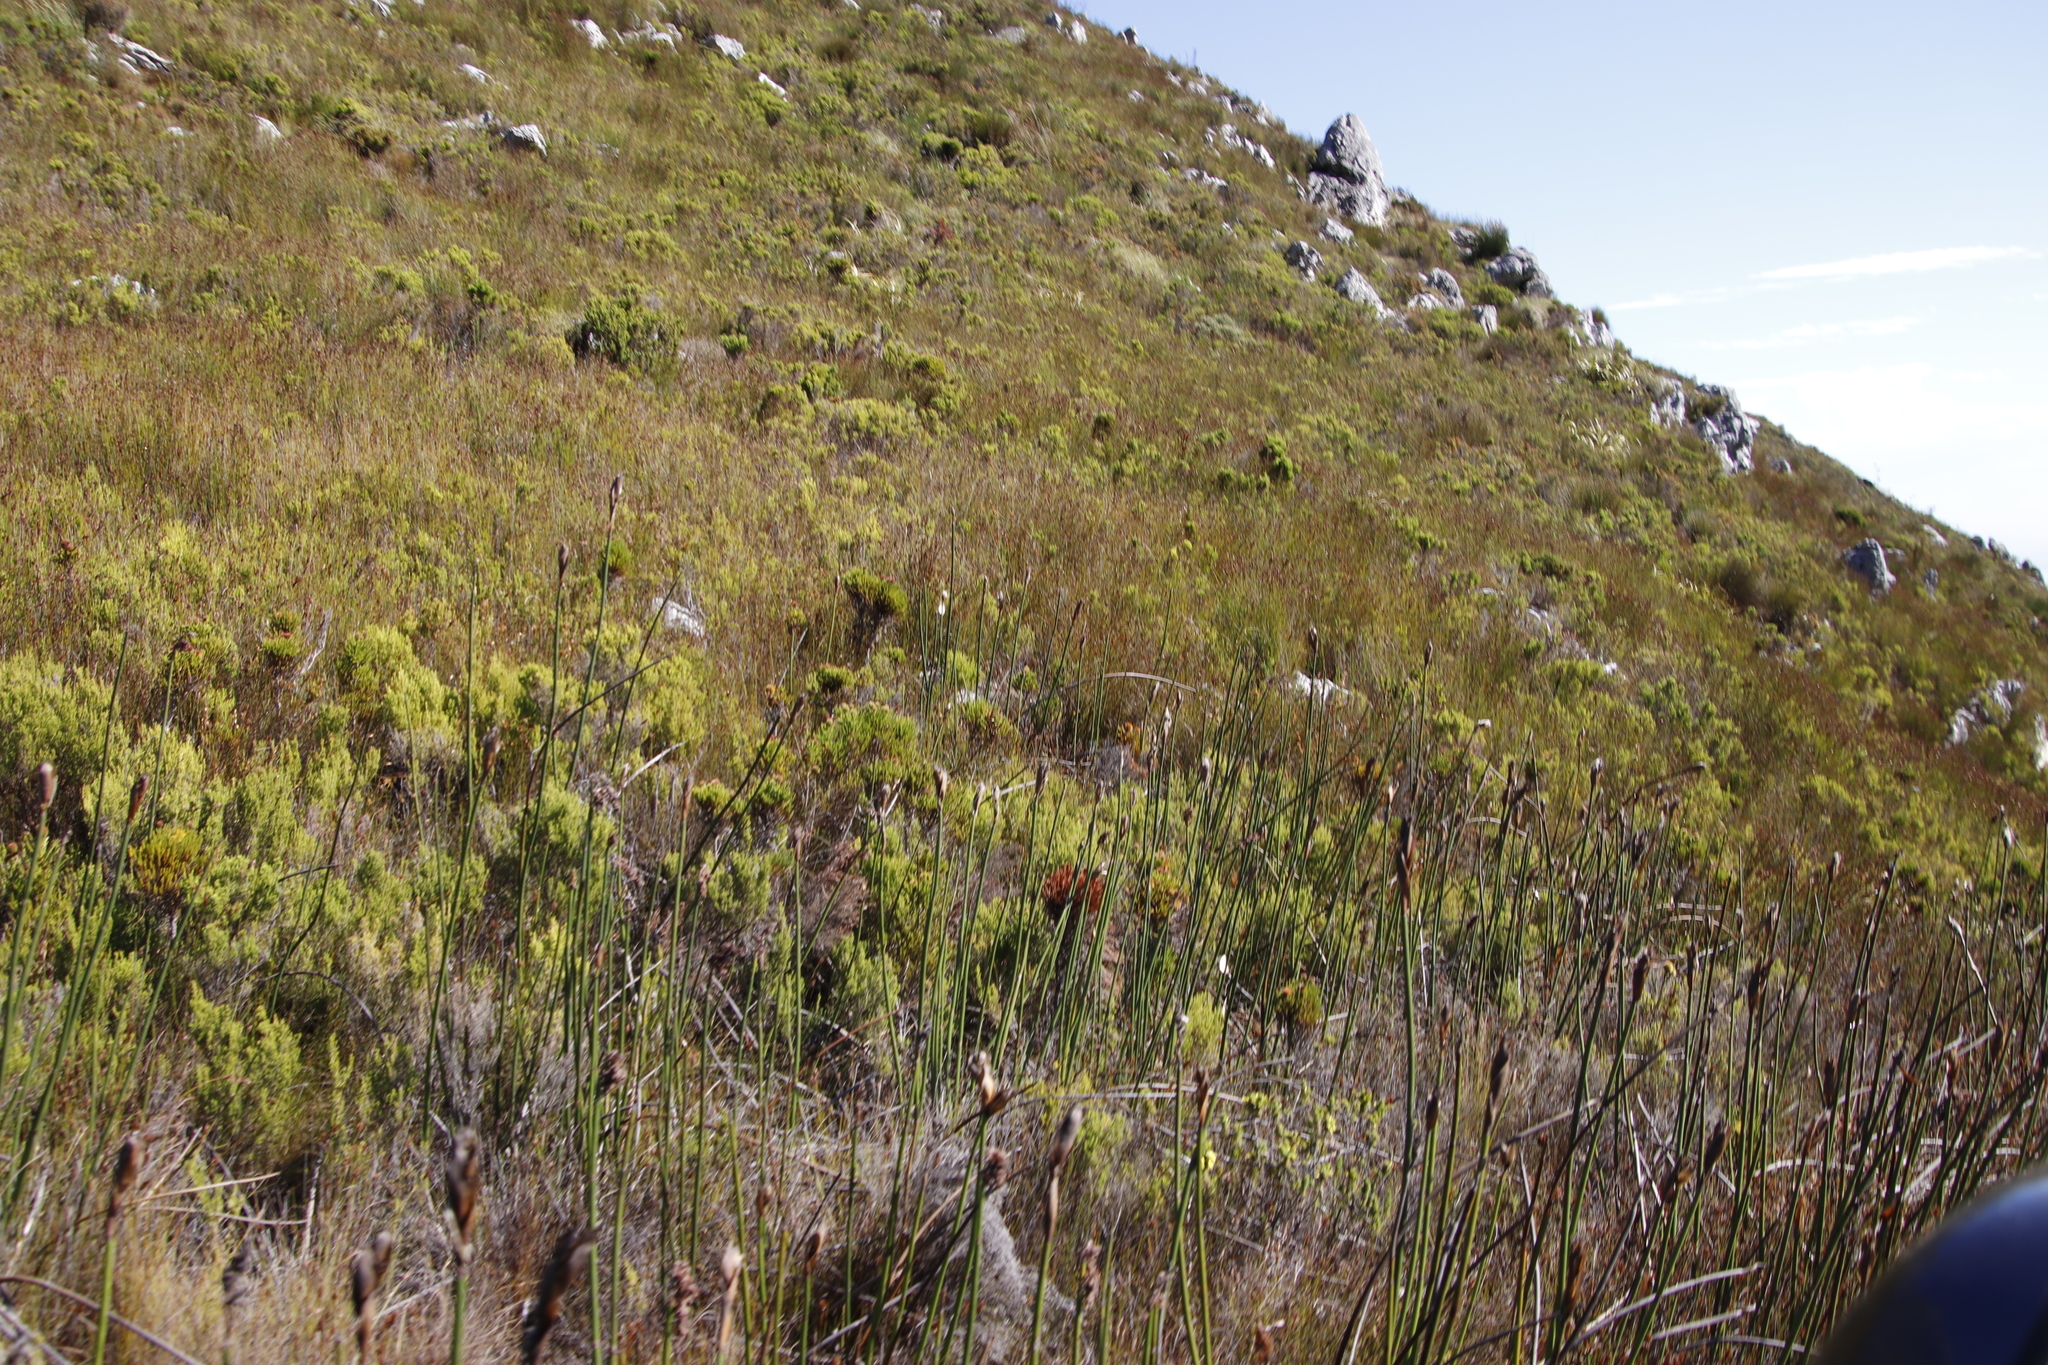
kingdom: Plantae
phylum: Tracheophyta
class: Liliopsida
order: Poales
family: Restionaceae
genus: Elegia
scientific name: Elegia mucronata
